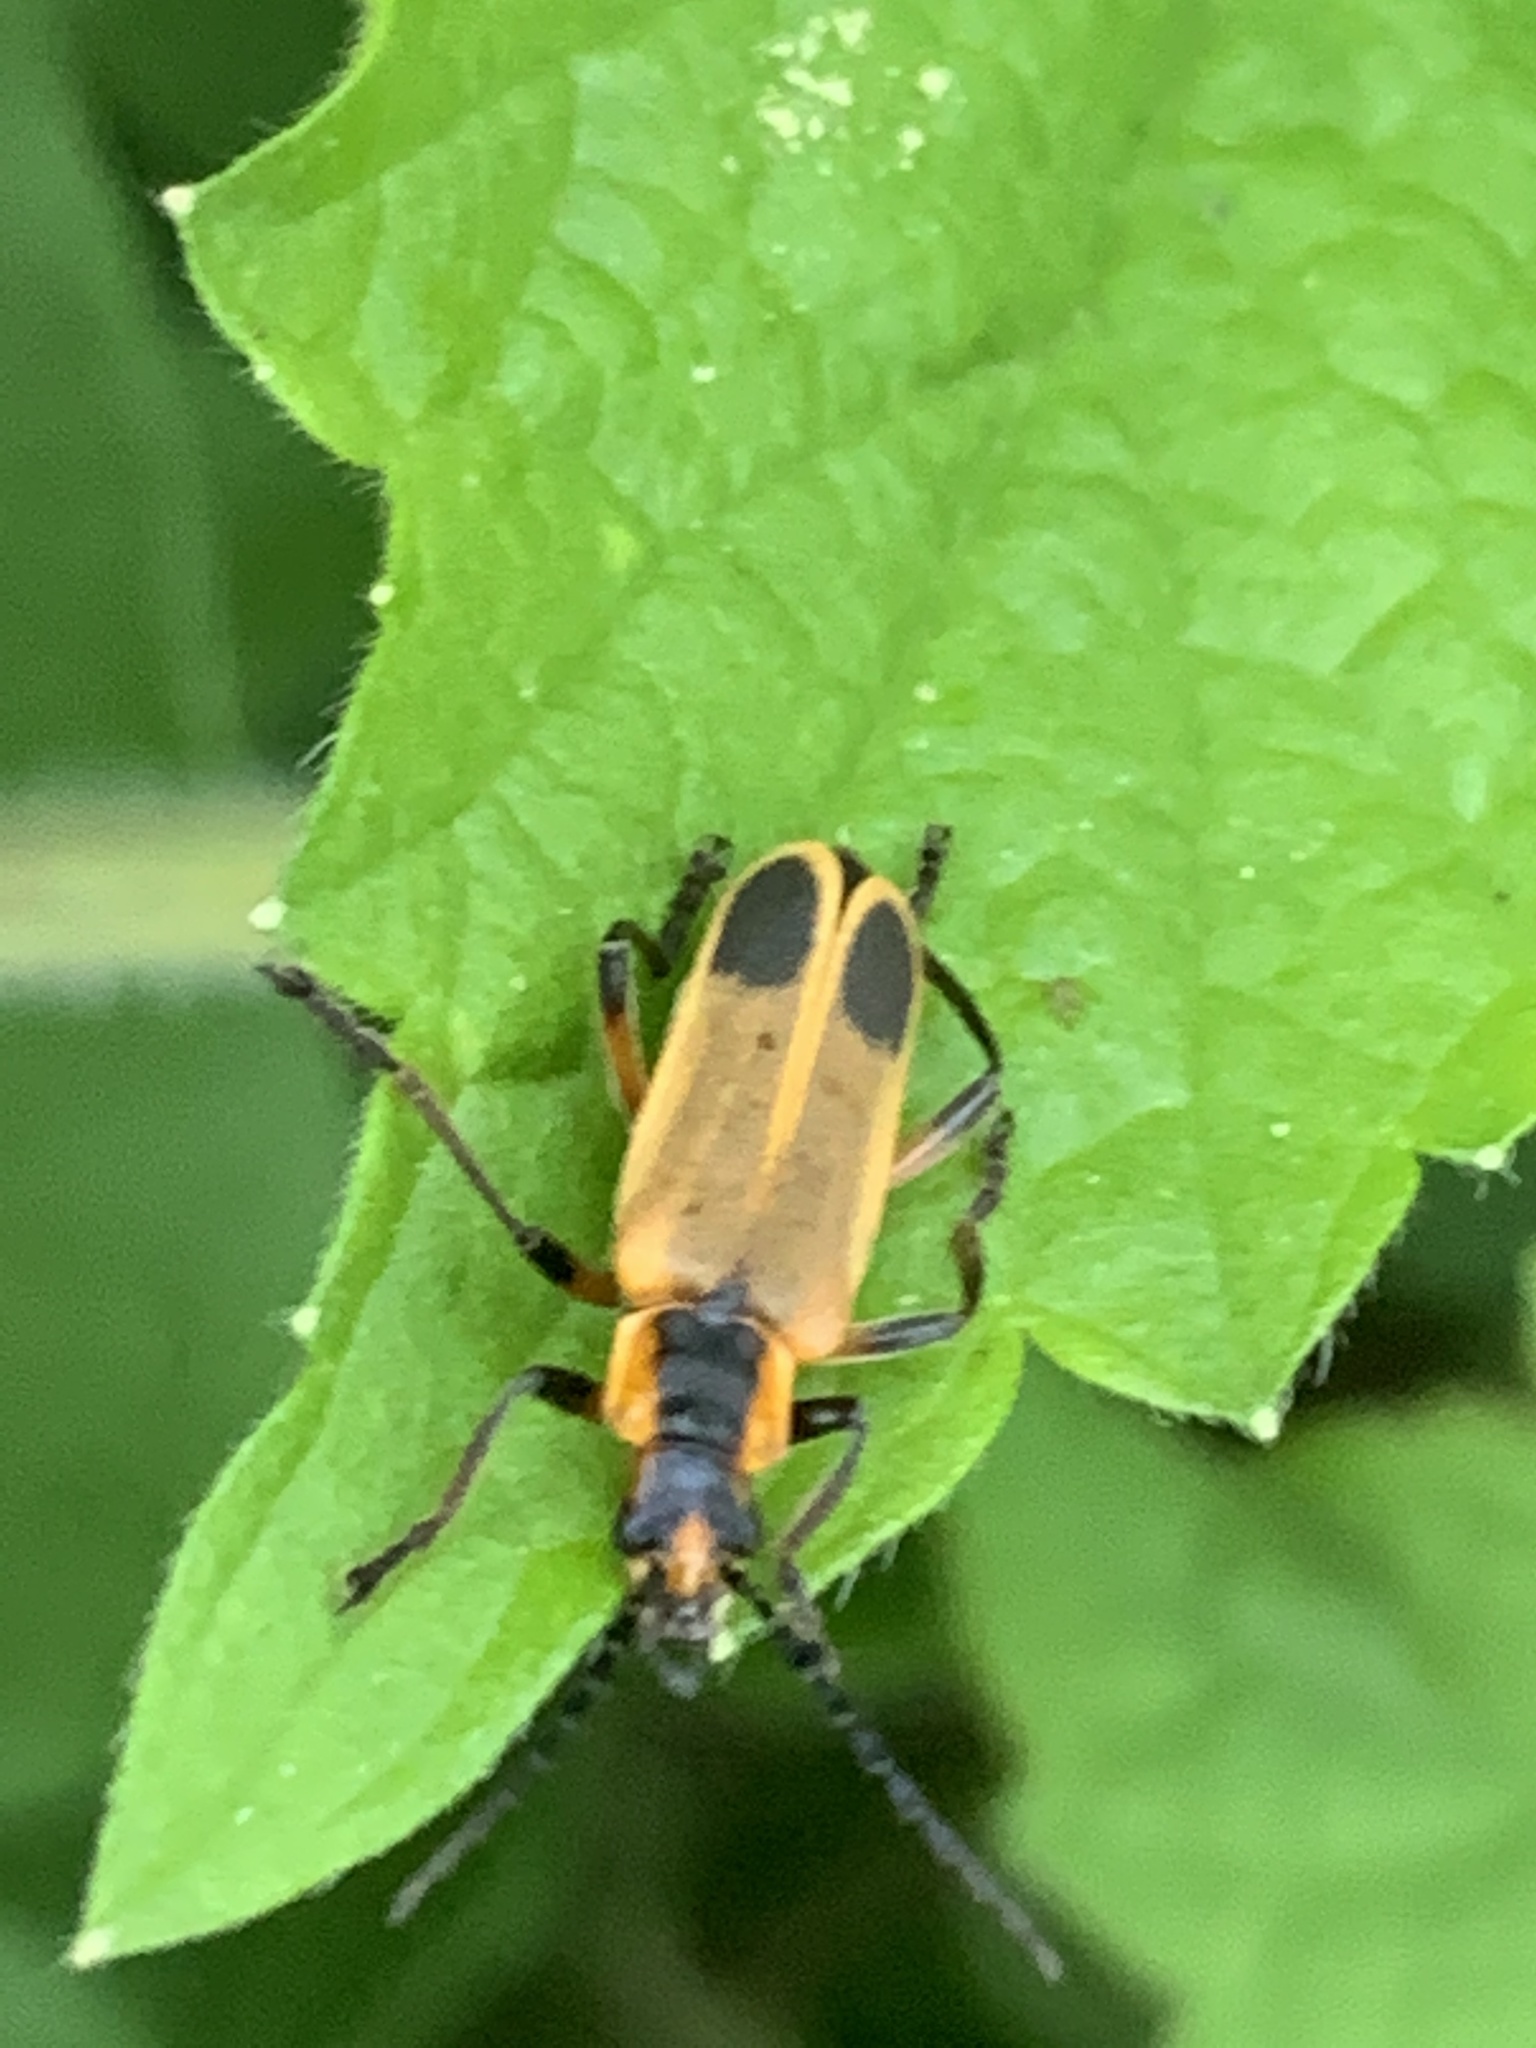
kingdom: Animalia
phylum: Arthropoda
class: Insecta
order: Coleoptera
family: Cantharidae
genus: Chauliognathus
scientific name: Chauliognathus marginatus
